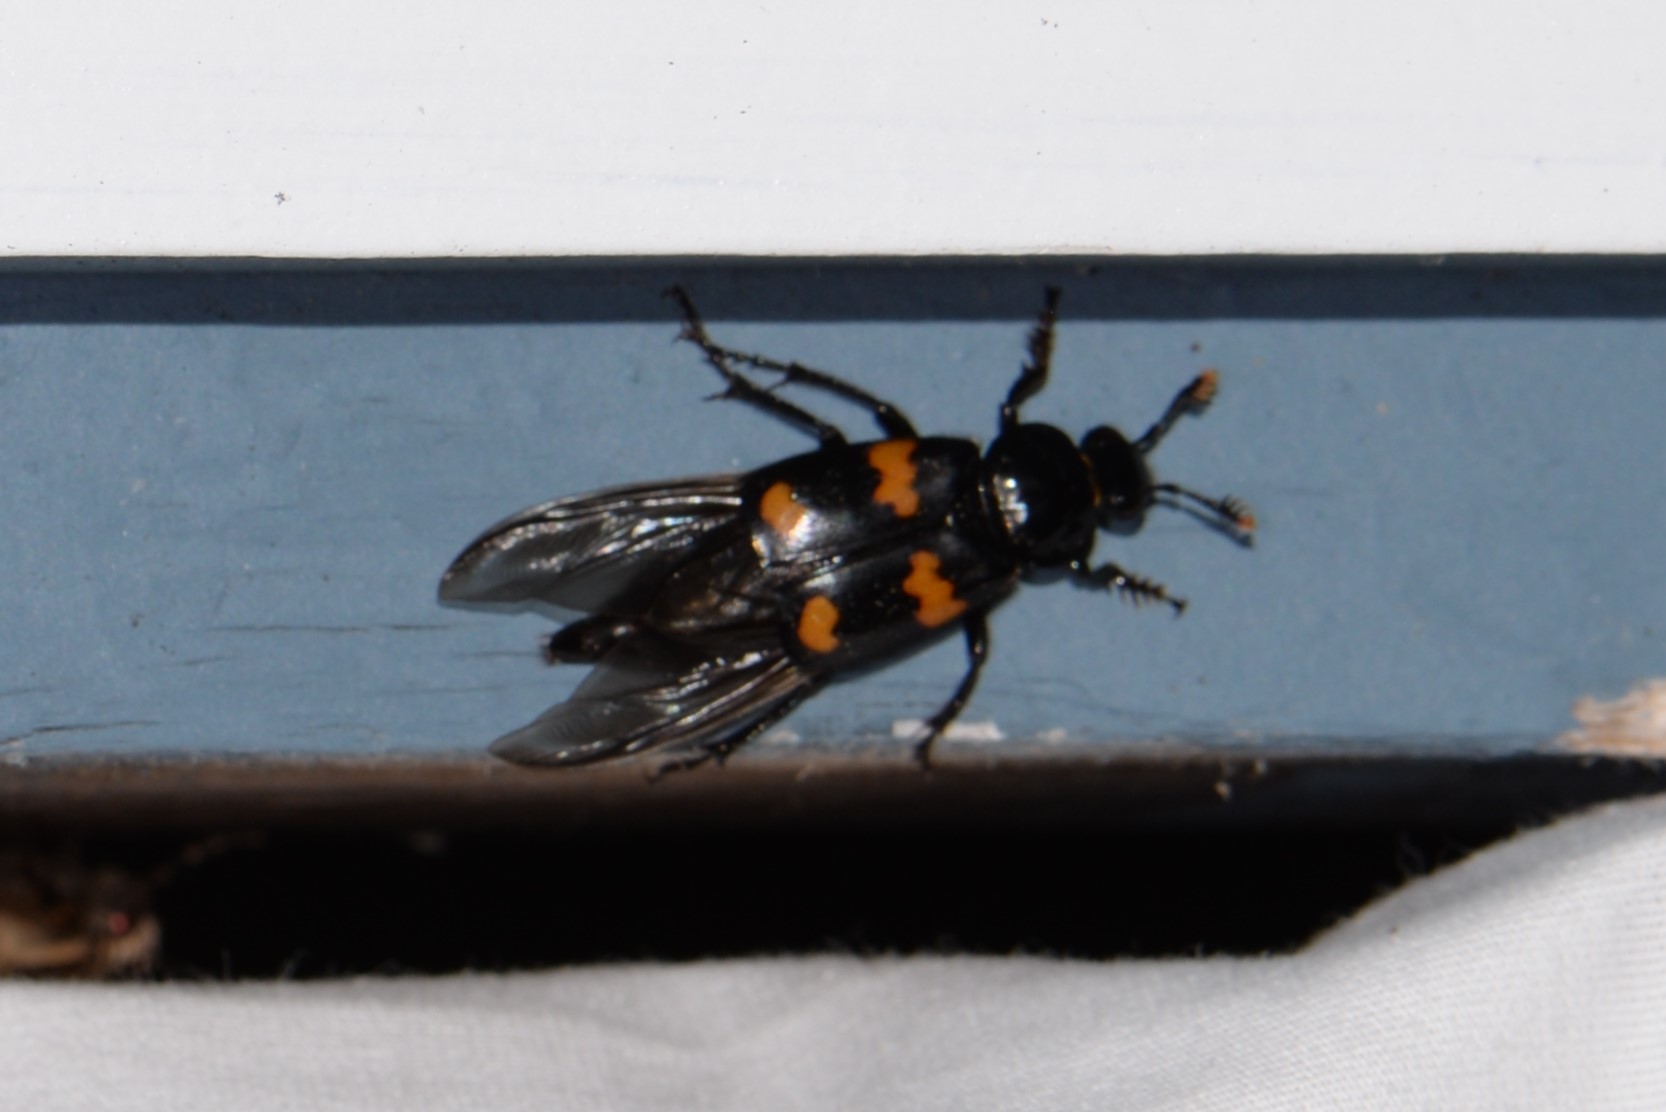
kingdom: Animalia
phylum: Arthropoda
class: Insecta
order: Coleoptera
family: Staphylinidae
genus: Nicrophorus
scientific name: Nicrophorus orbicollis
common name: Roundneck sexton beetle
